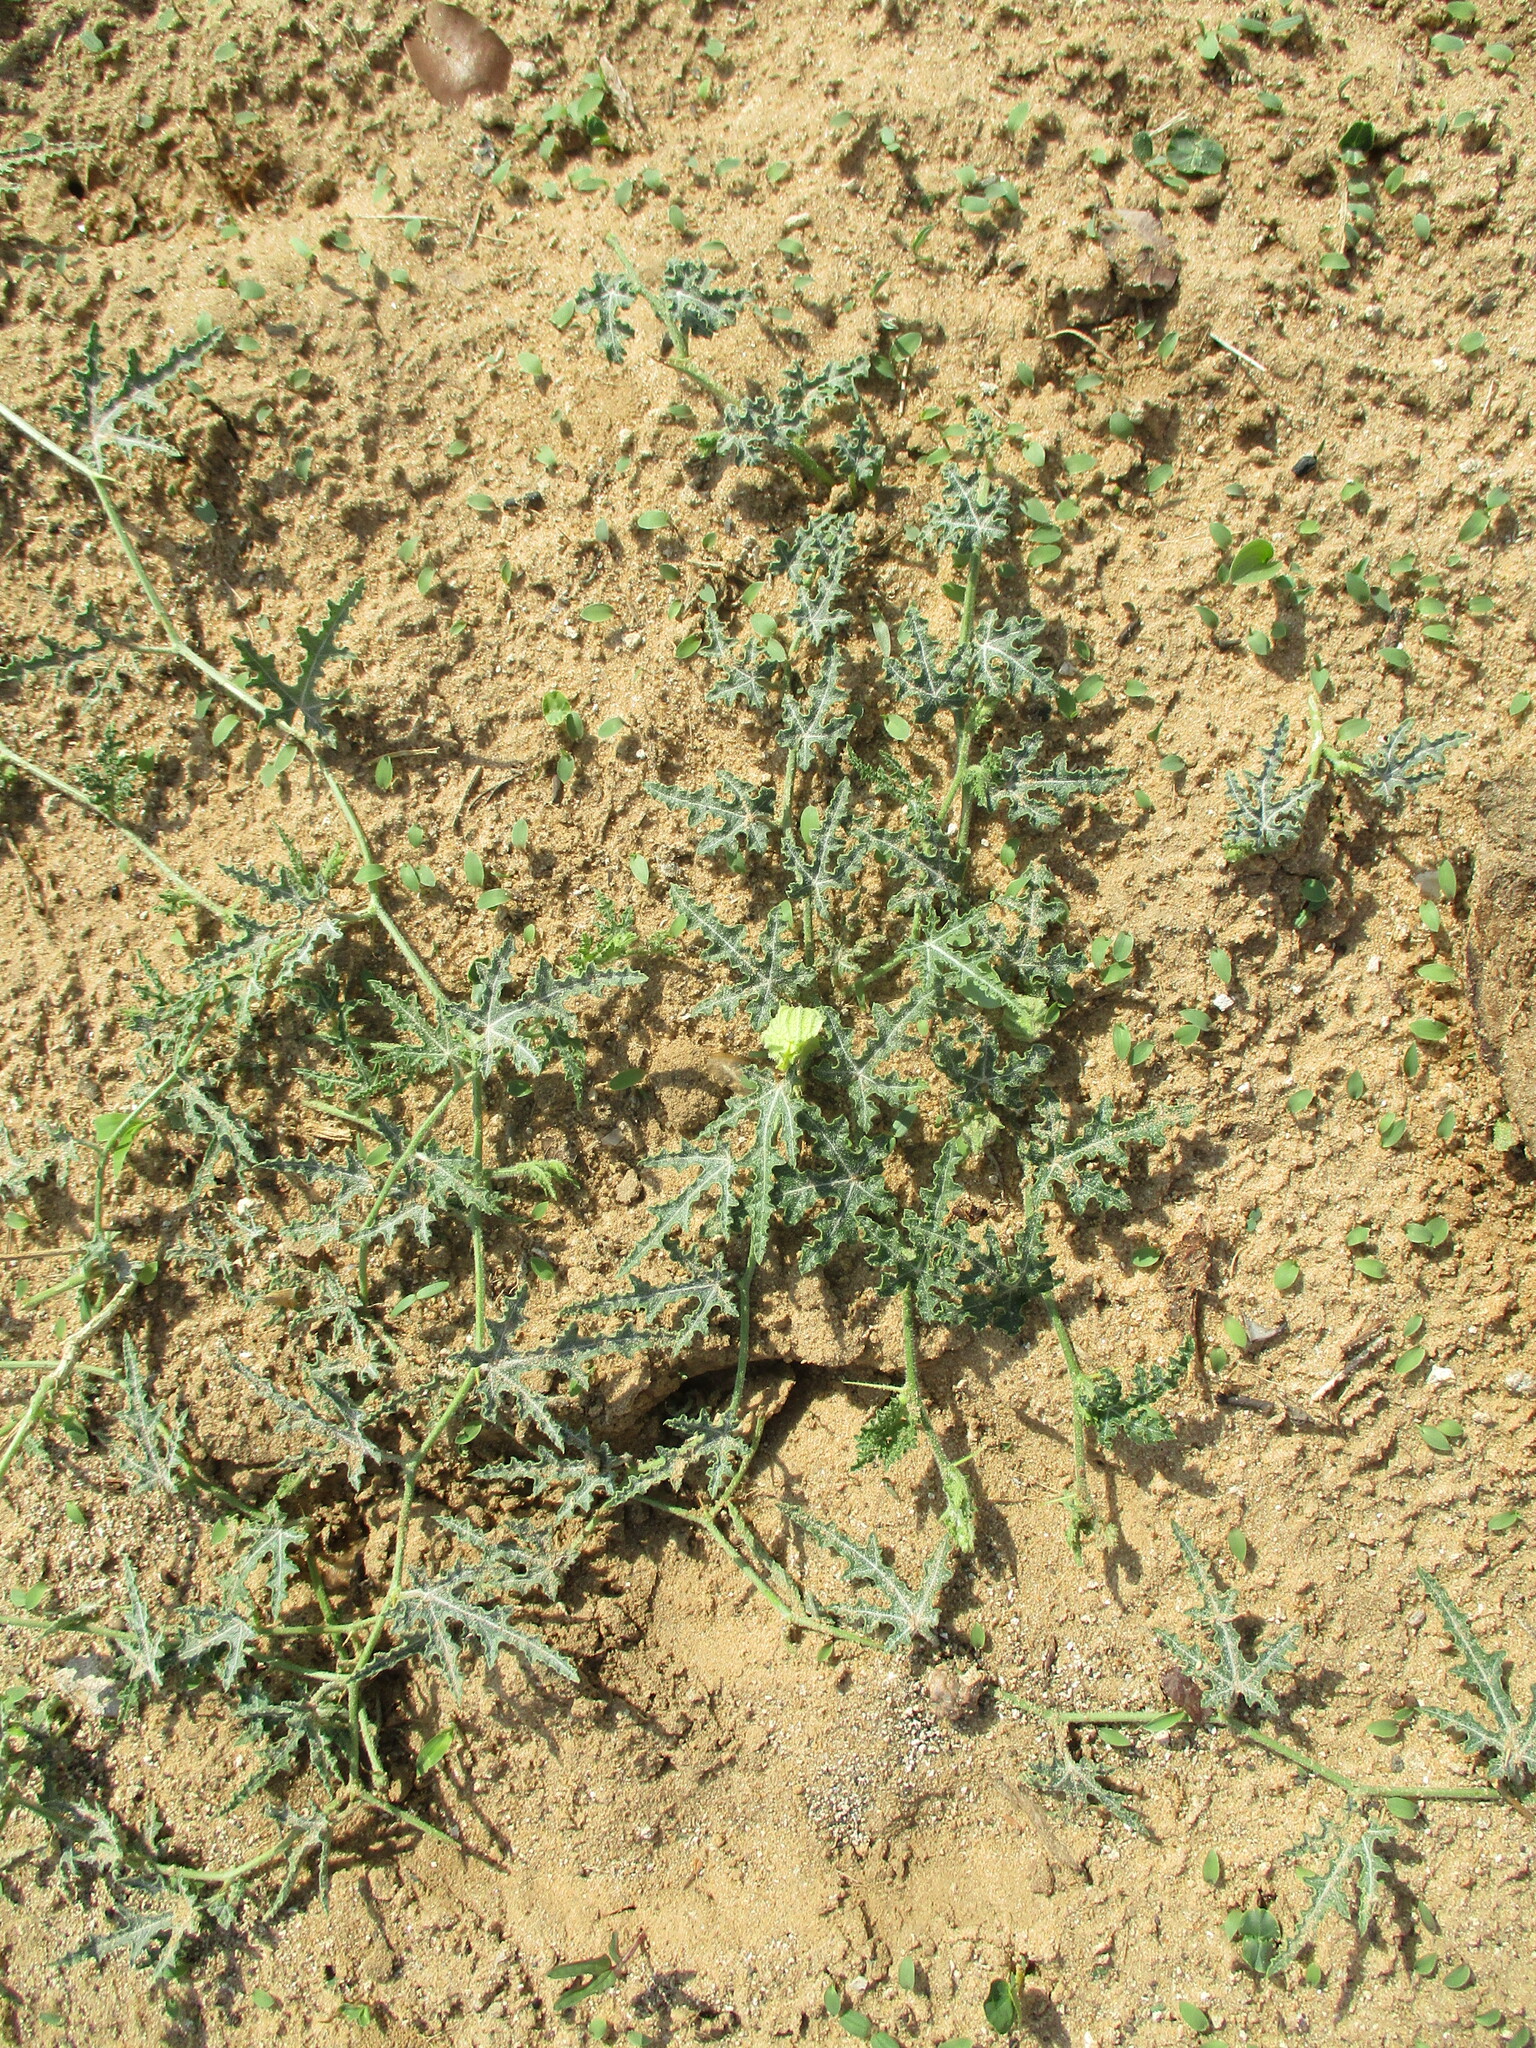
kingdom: Plantae
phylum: Tracheophyta
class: Magnoliopsida
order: Cucurbitales
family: Cucurbitaceae
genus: Citrullus
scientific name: Citrullus naudinianus
